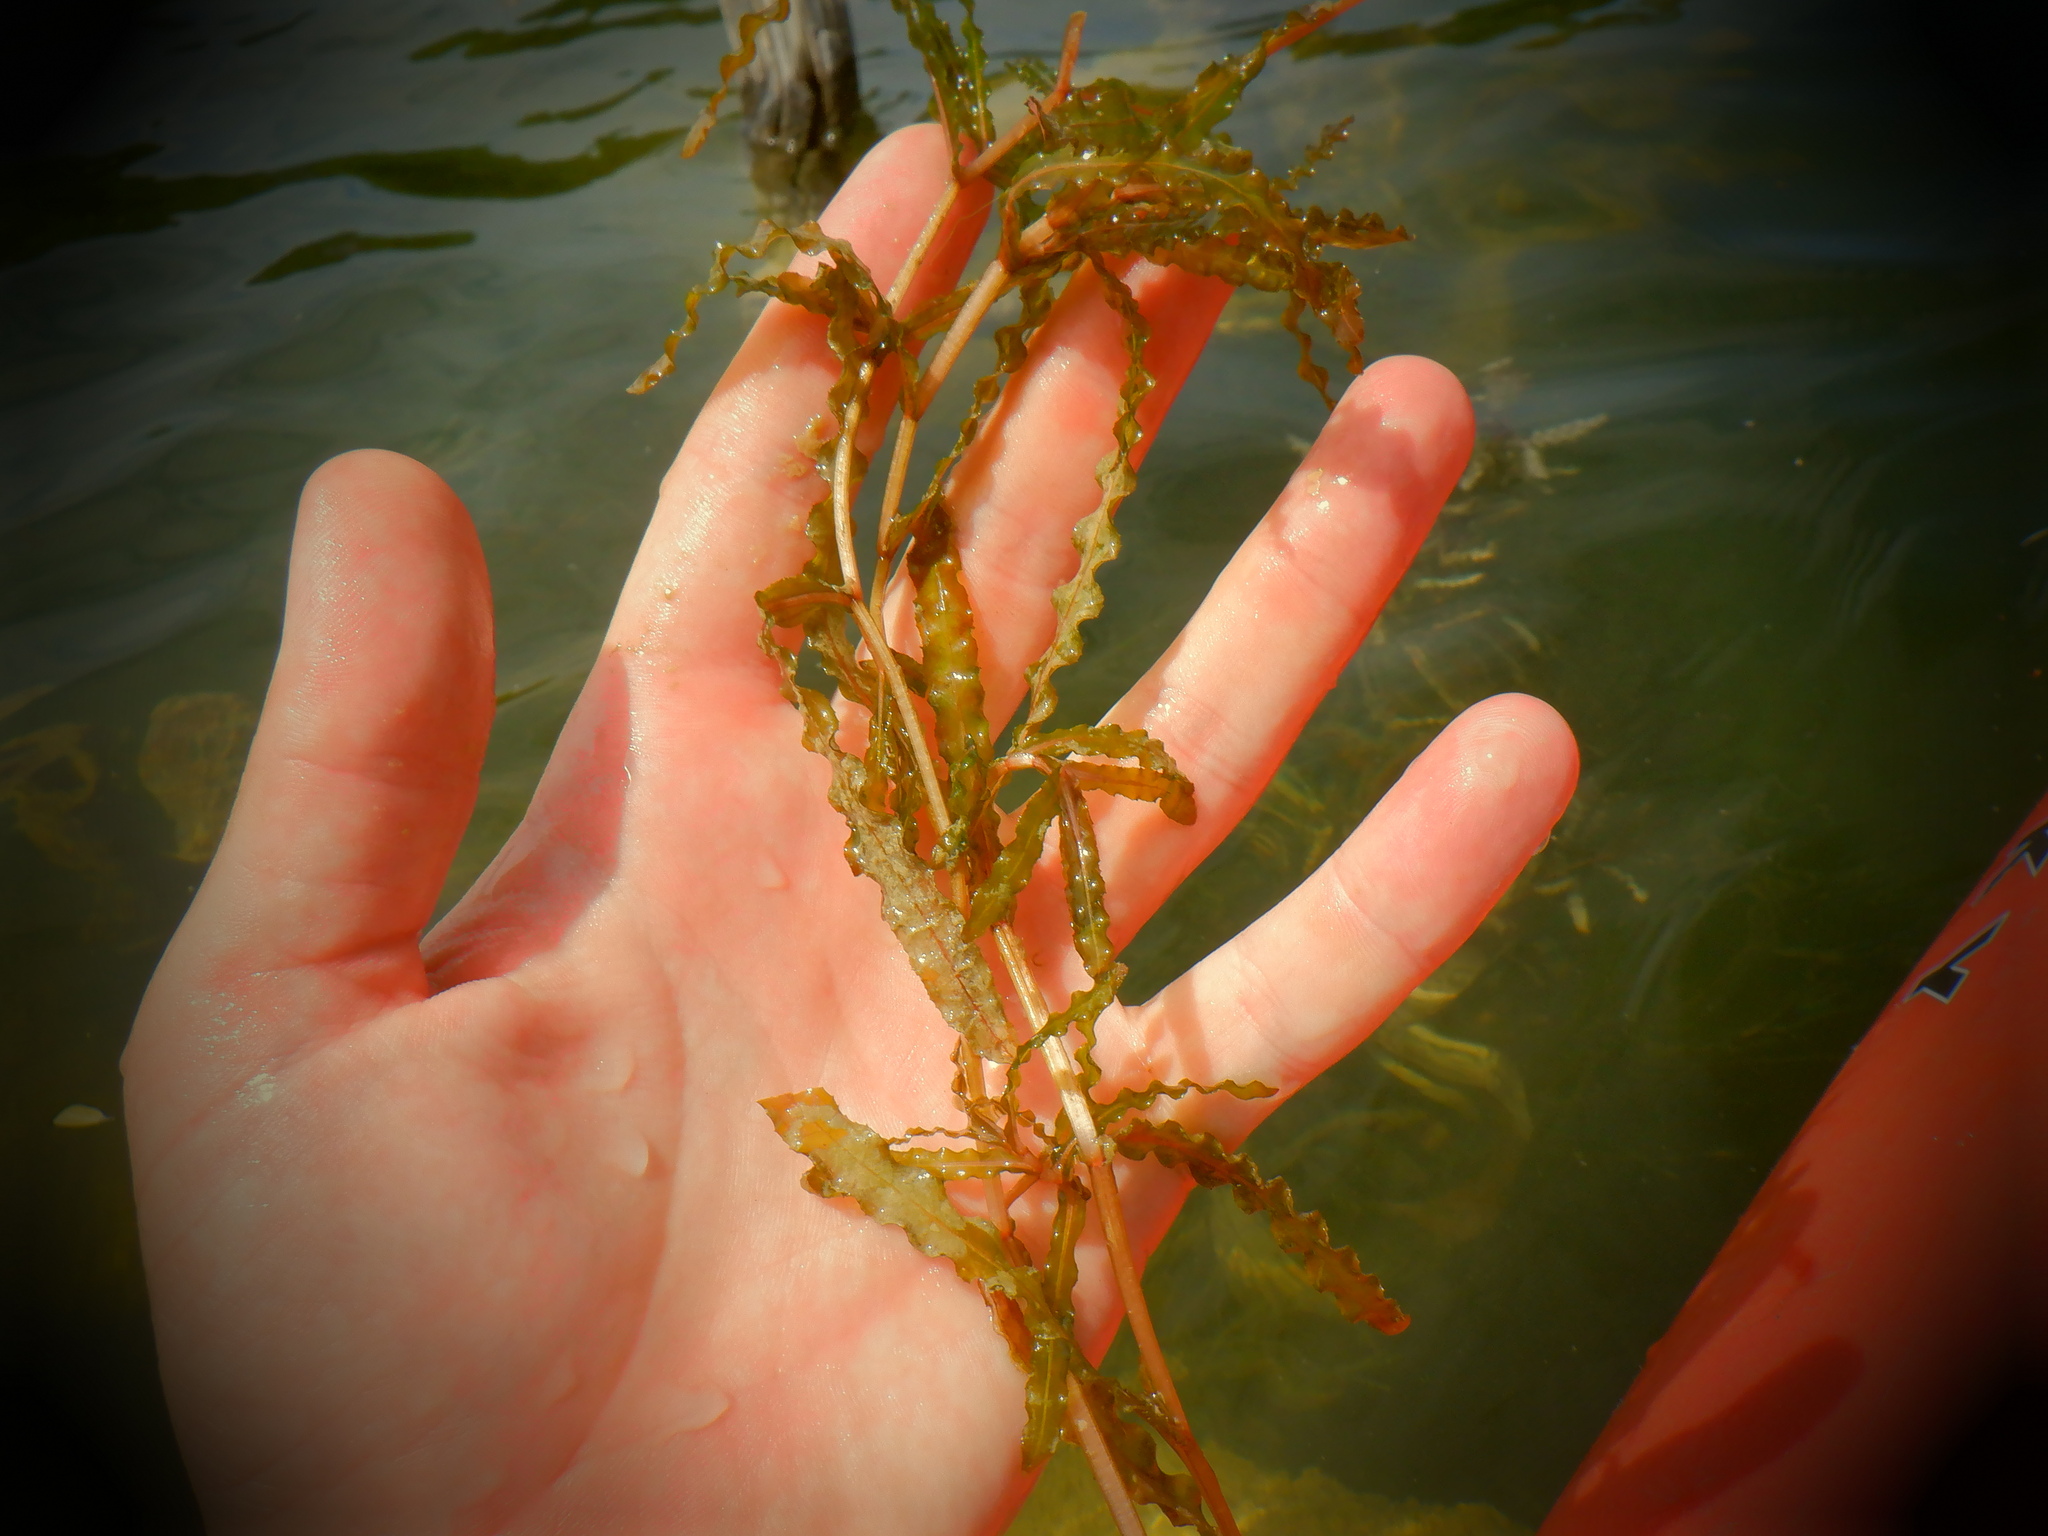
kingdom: Plantae
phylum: Tracheophyta
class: Liliopsida
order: Alismatales
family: Potamogetonaceae
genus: Potamogeton
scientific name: Potamogeton crispus
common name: Curled pondweed
